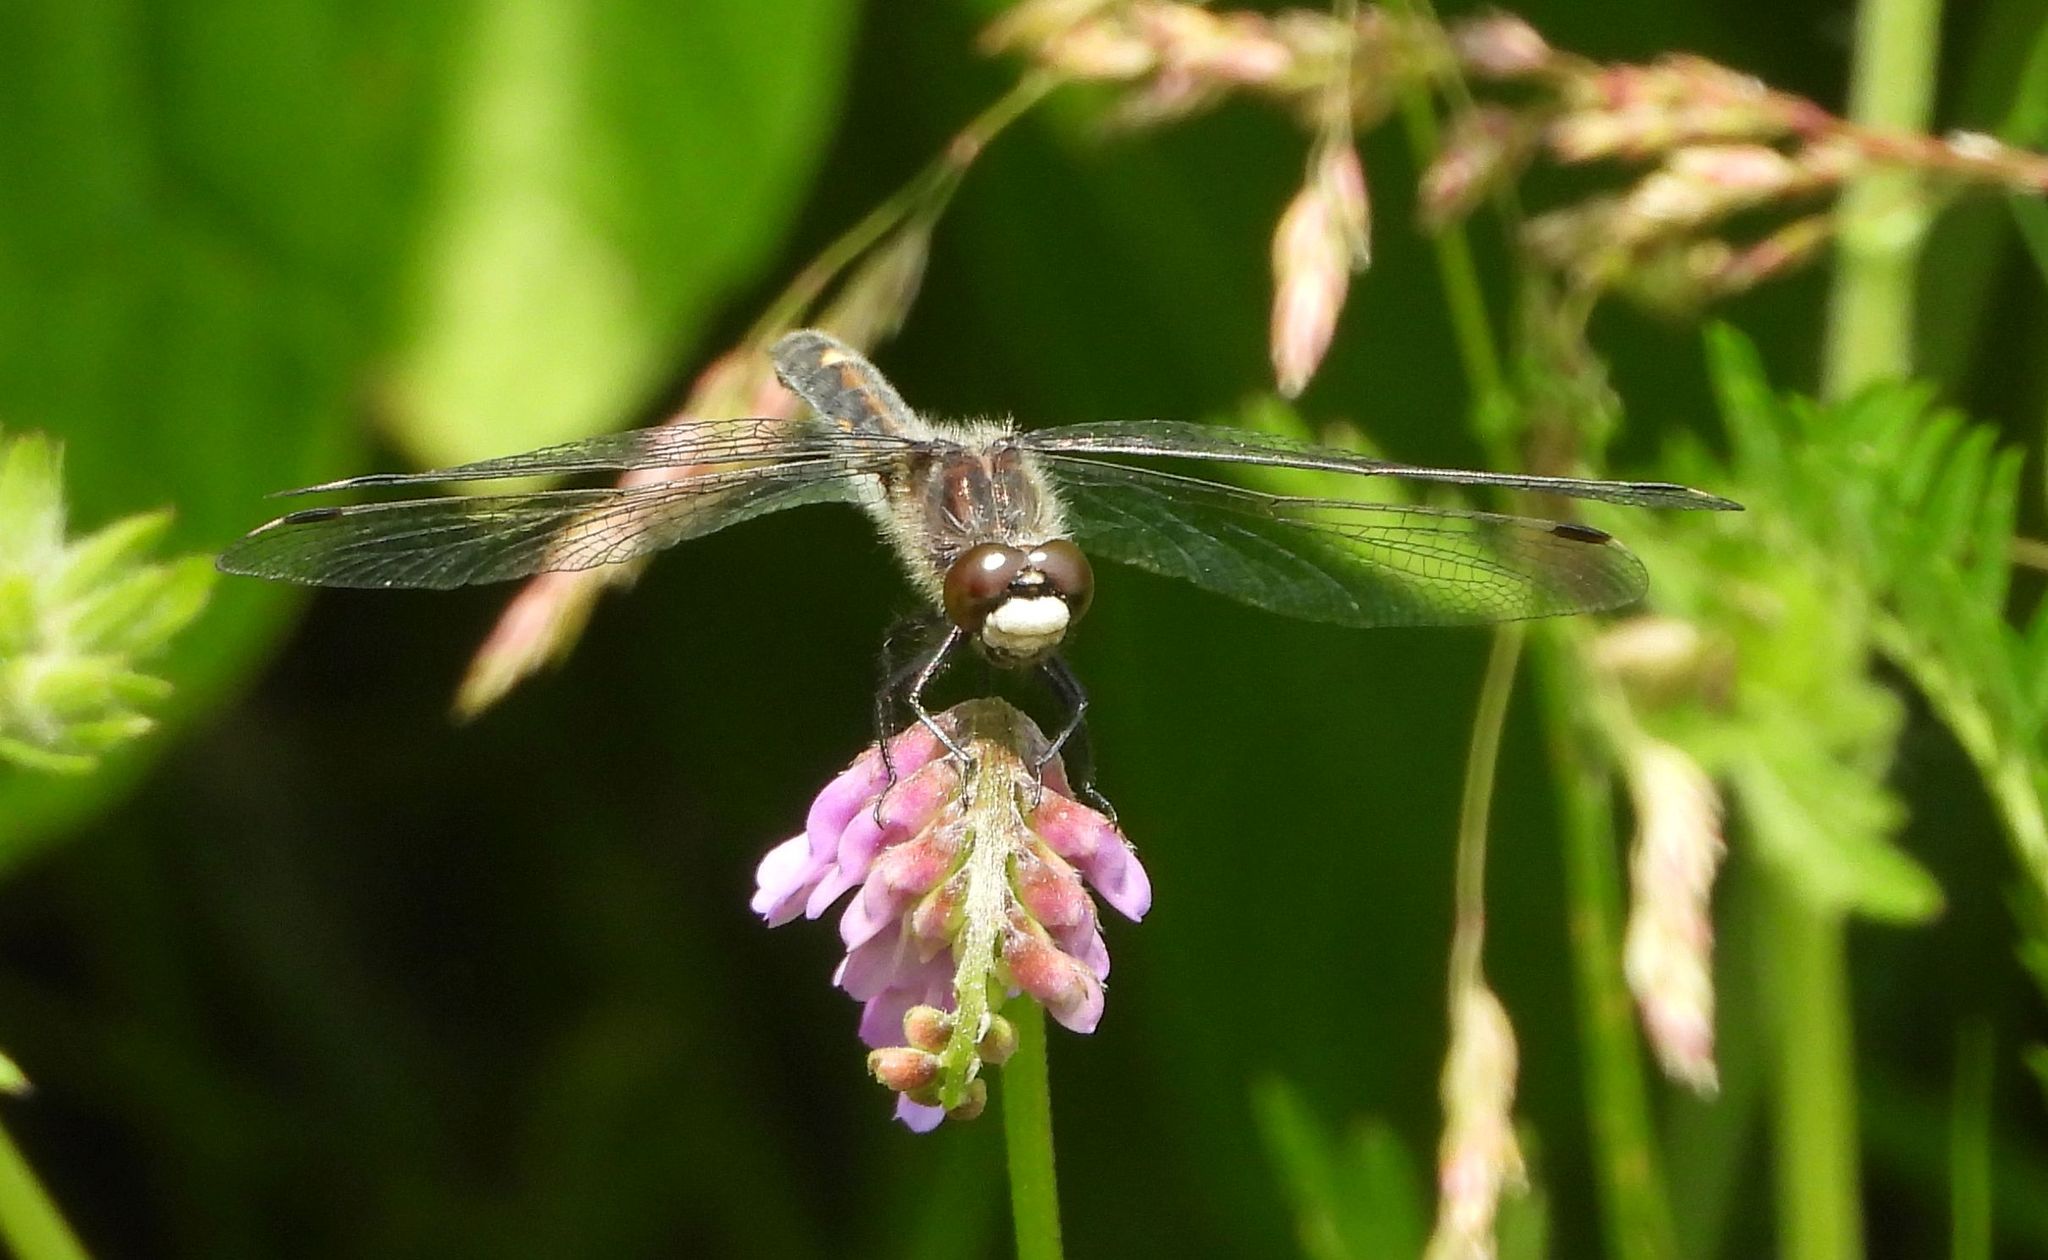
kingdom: Animalia
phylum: Arthropoda
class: Insecta
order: Odonata
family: Libellulidae
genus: Leucorrhinia
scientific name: Leucorrhinia intacta
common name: Dot-tailed whiteface
